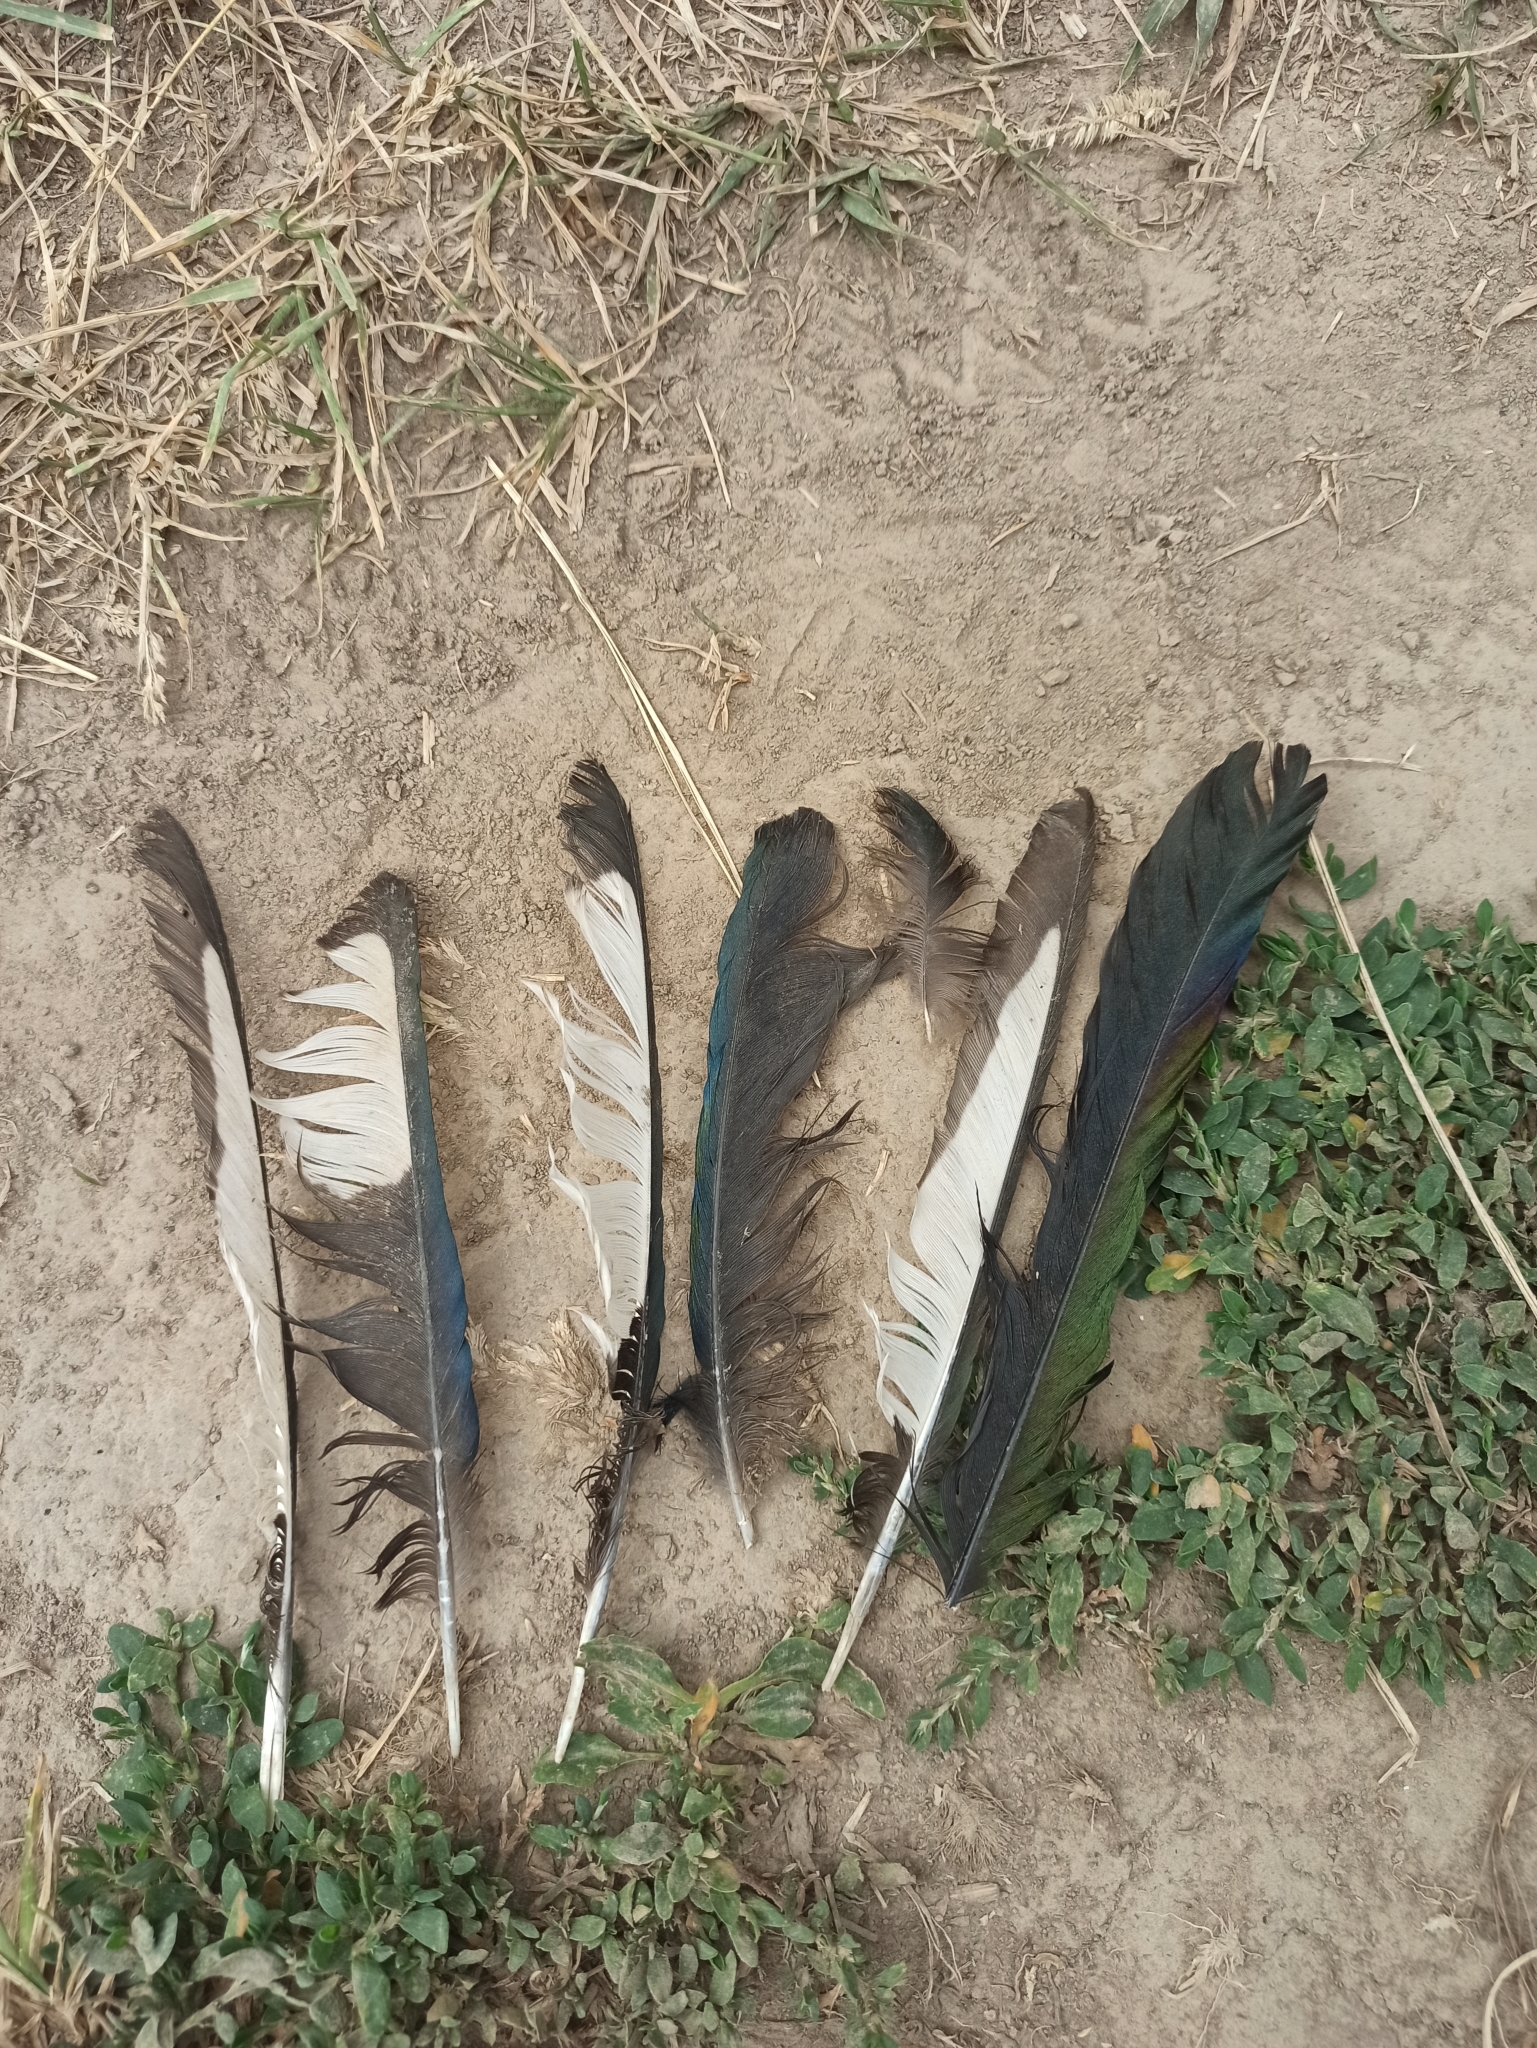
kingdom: Animalia
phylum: Chordata
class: Aves
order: Passeriformes
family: Corvidae
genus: Pica
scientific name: Pica pica
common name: Eurasian magpie
